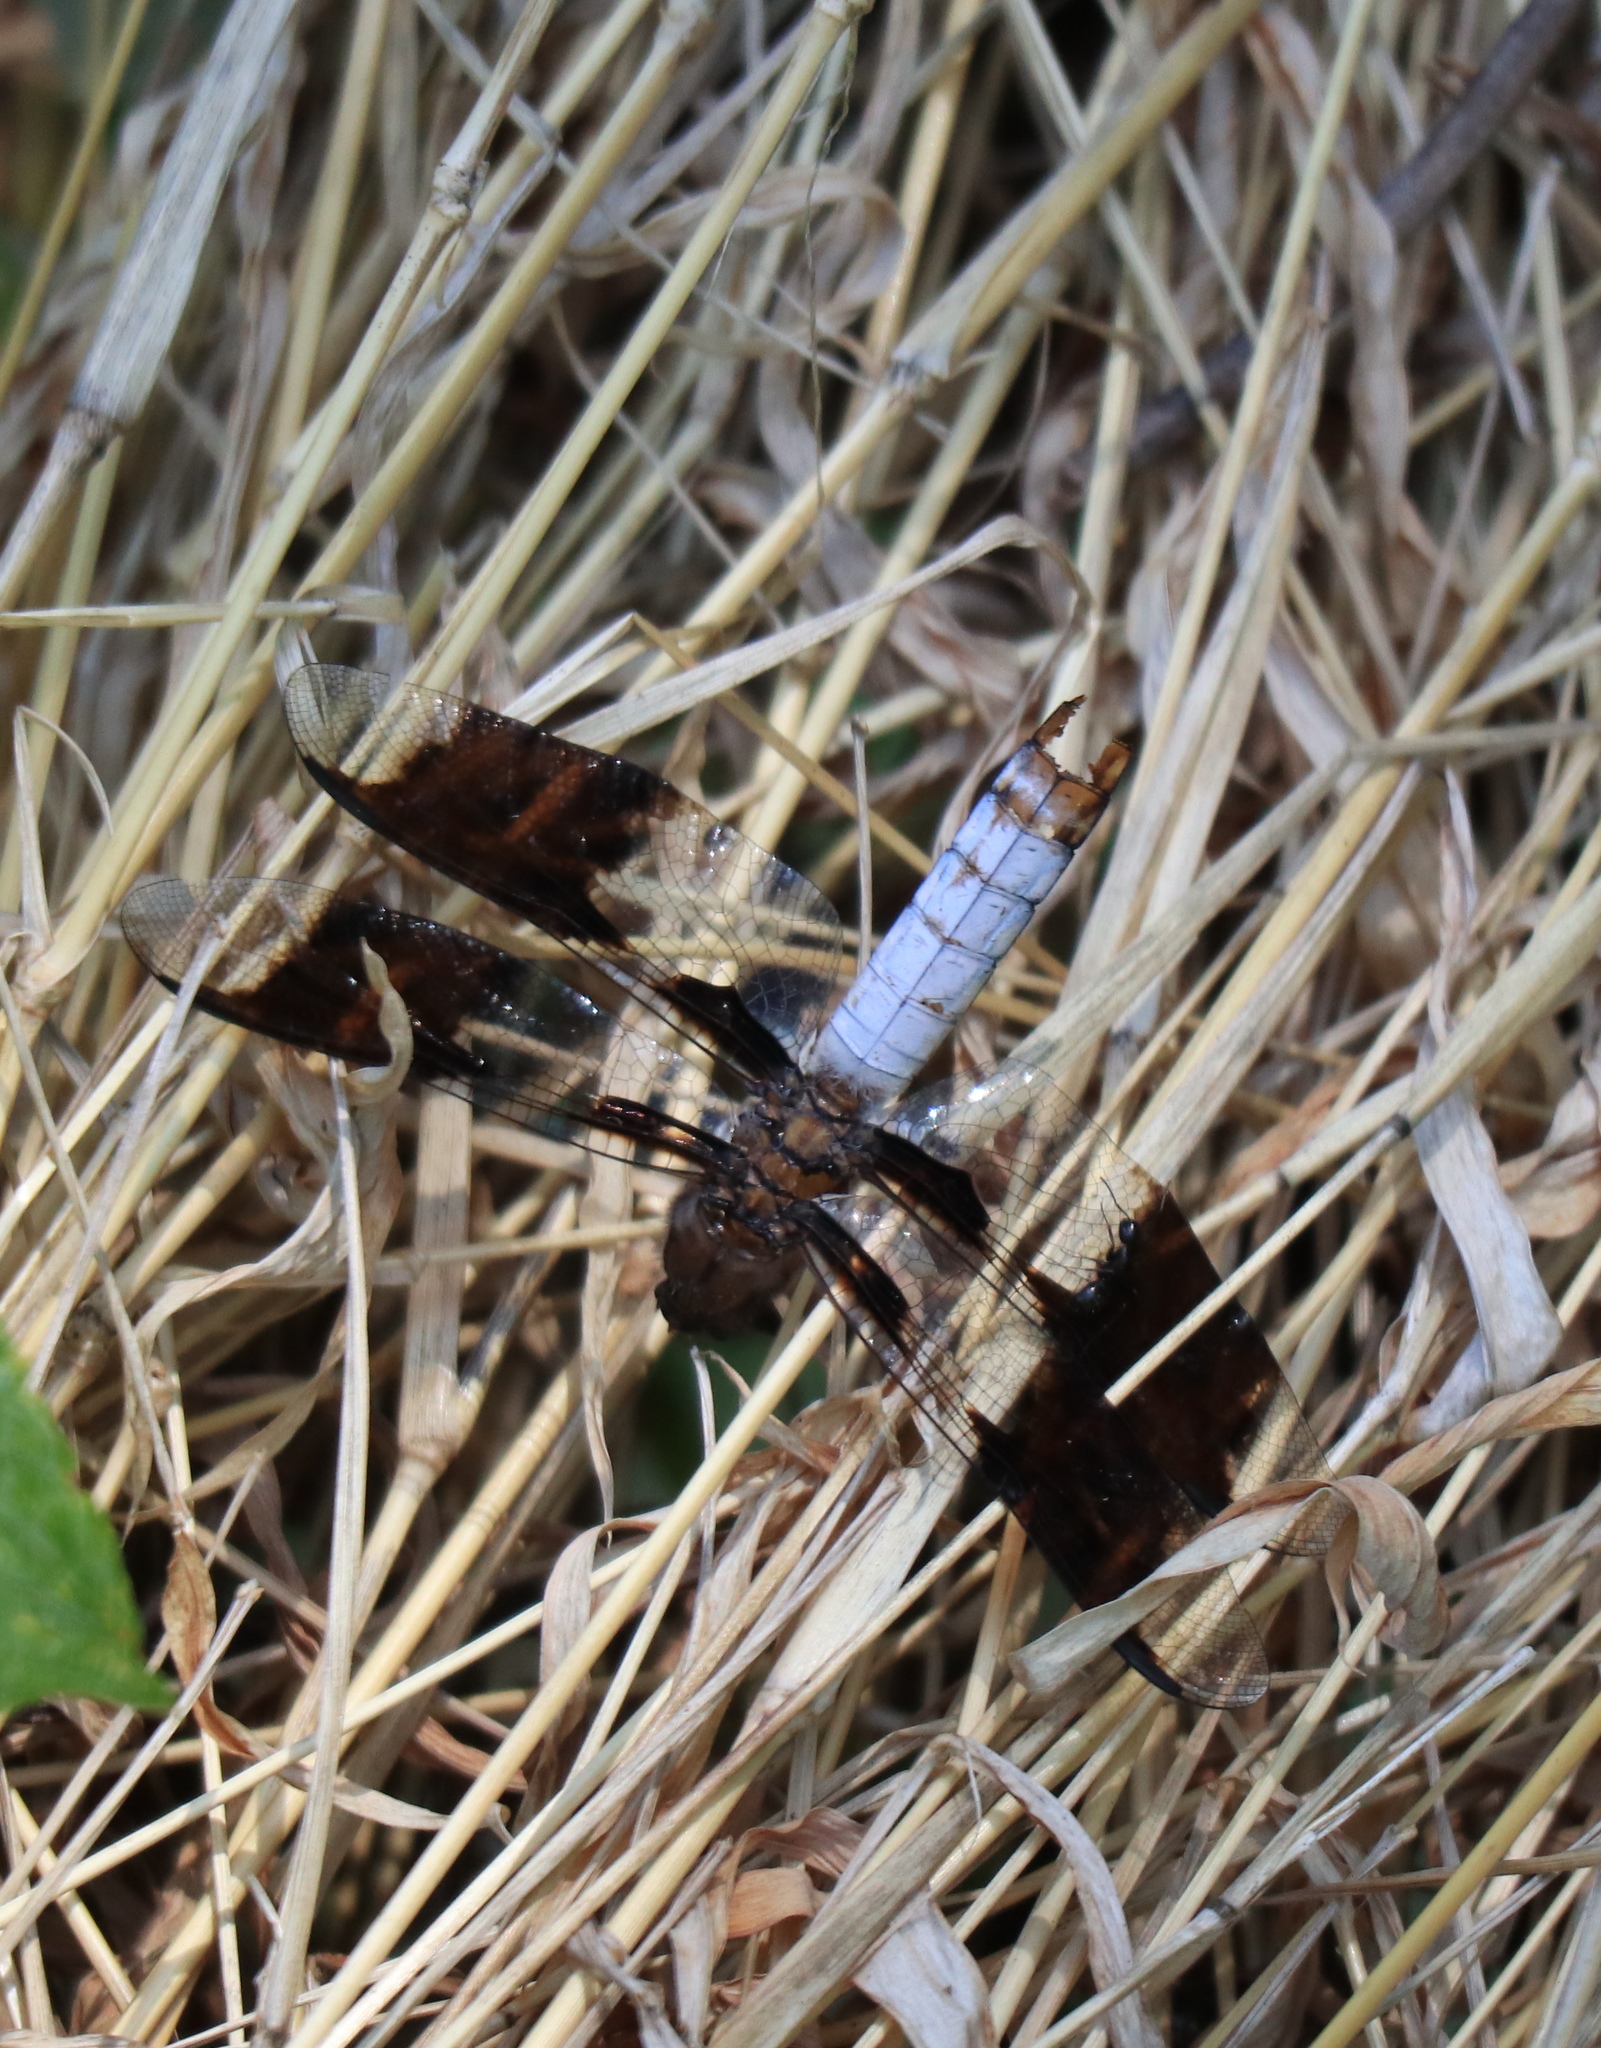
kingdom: Animalia
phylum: Arthropoda
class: Insecta
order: Odonata
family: Libellulidae
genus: Plathemis
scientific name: Plathemis lydia
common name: Common whitetail
